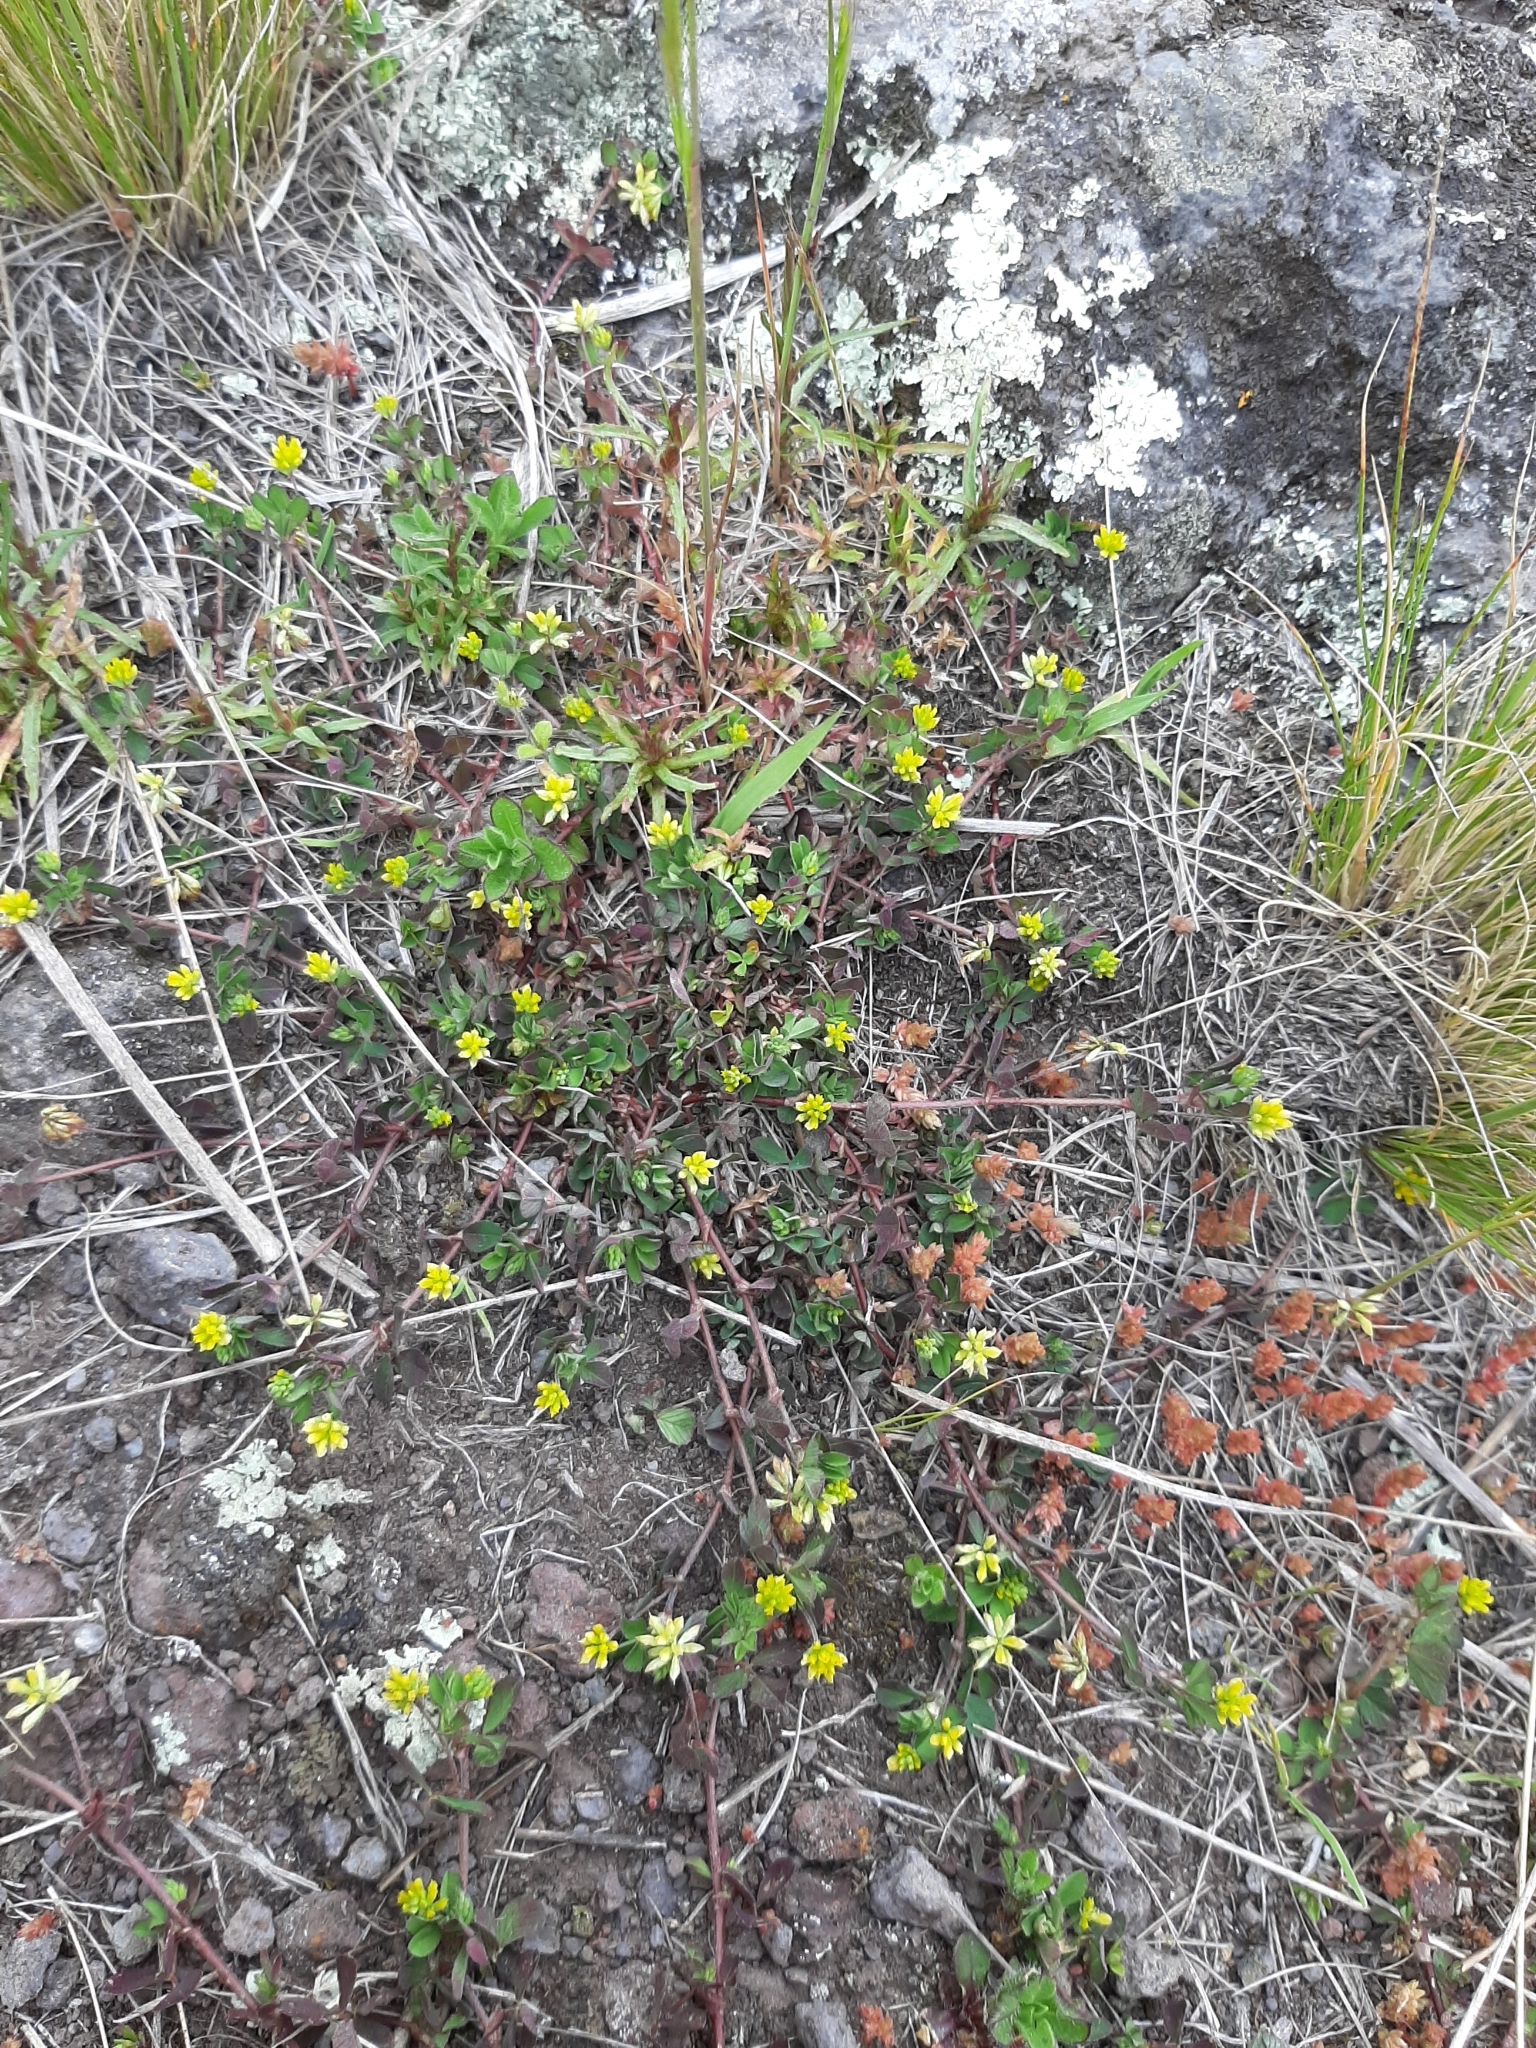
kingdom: Plantae
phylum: Tracheophyta
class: Magnoliopsida
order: Fabales
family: Fabaceae
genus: Trifolium
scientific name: Trifolium dubium
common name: Suckling clover
